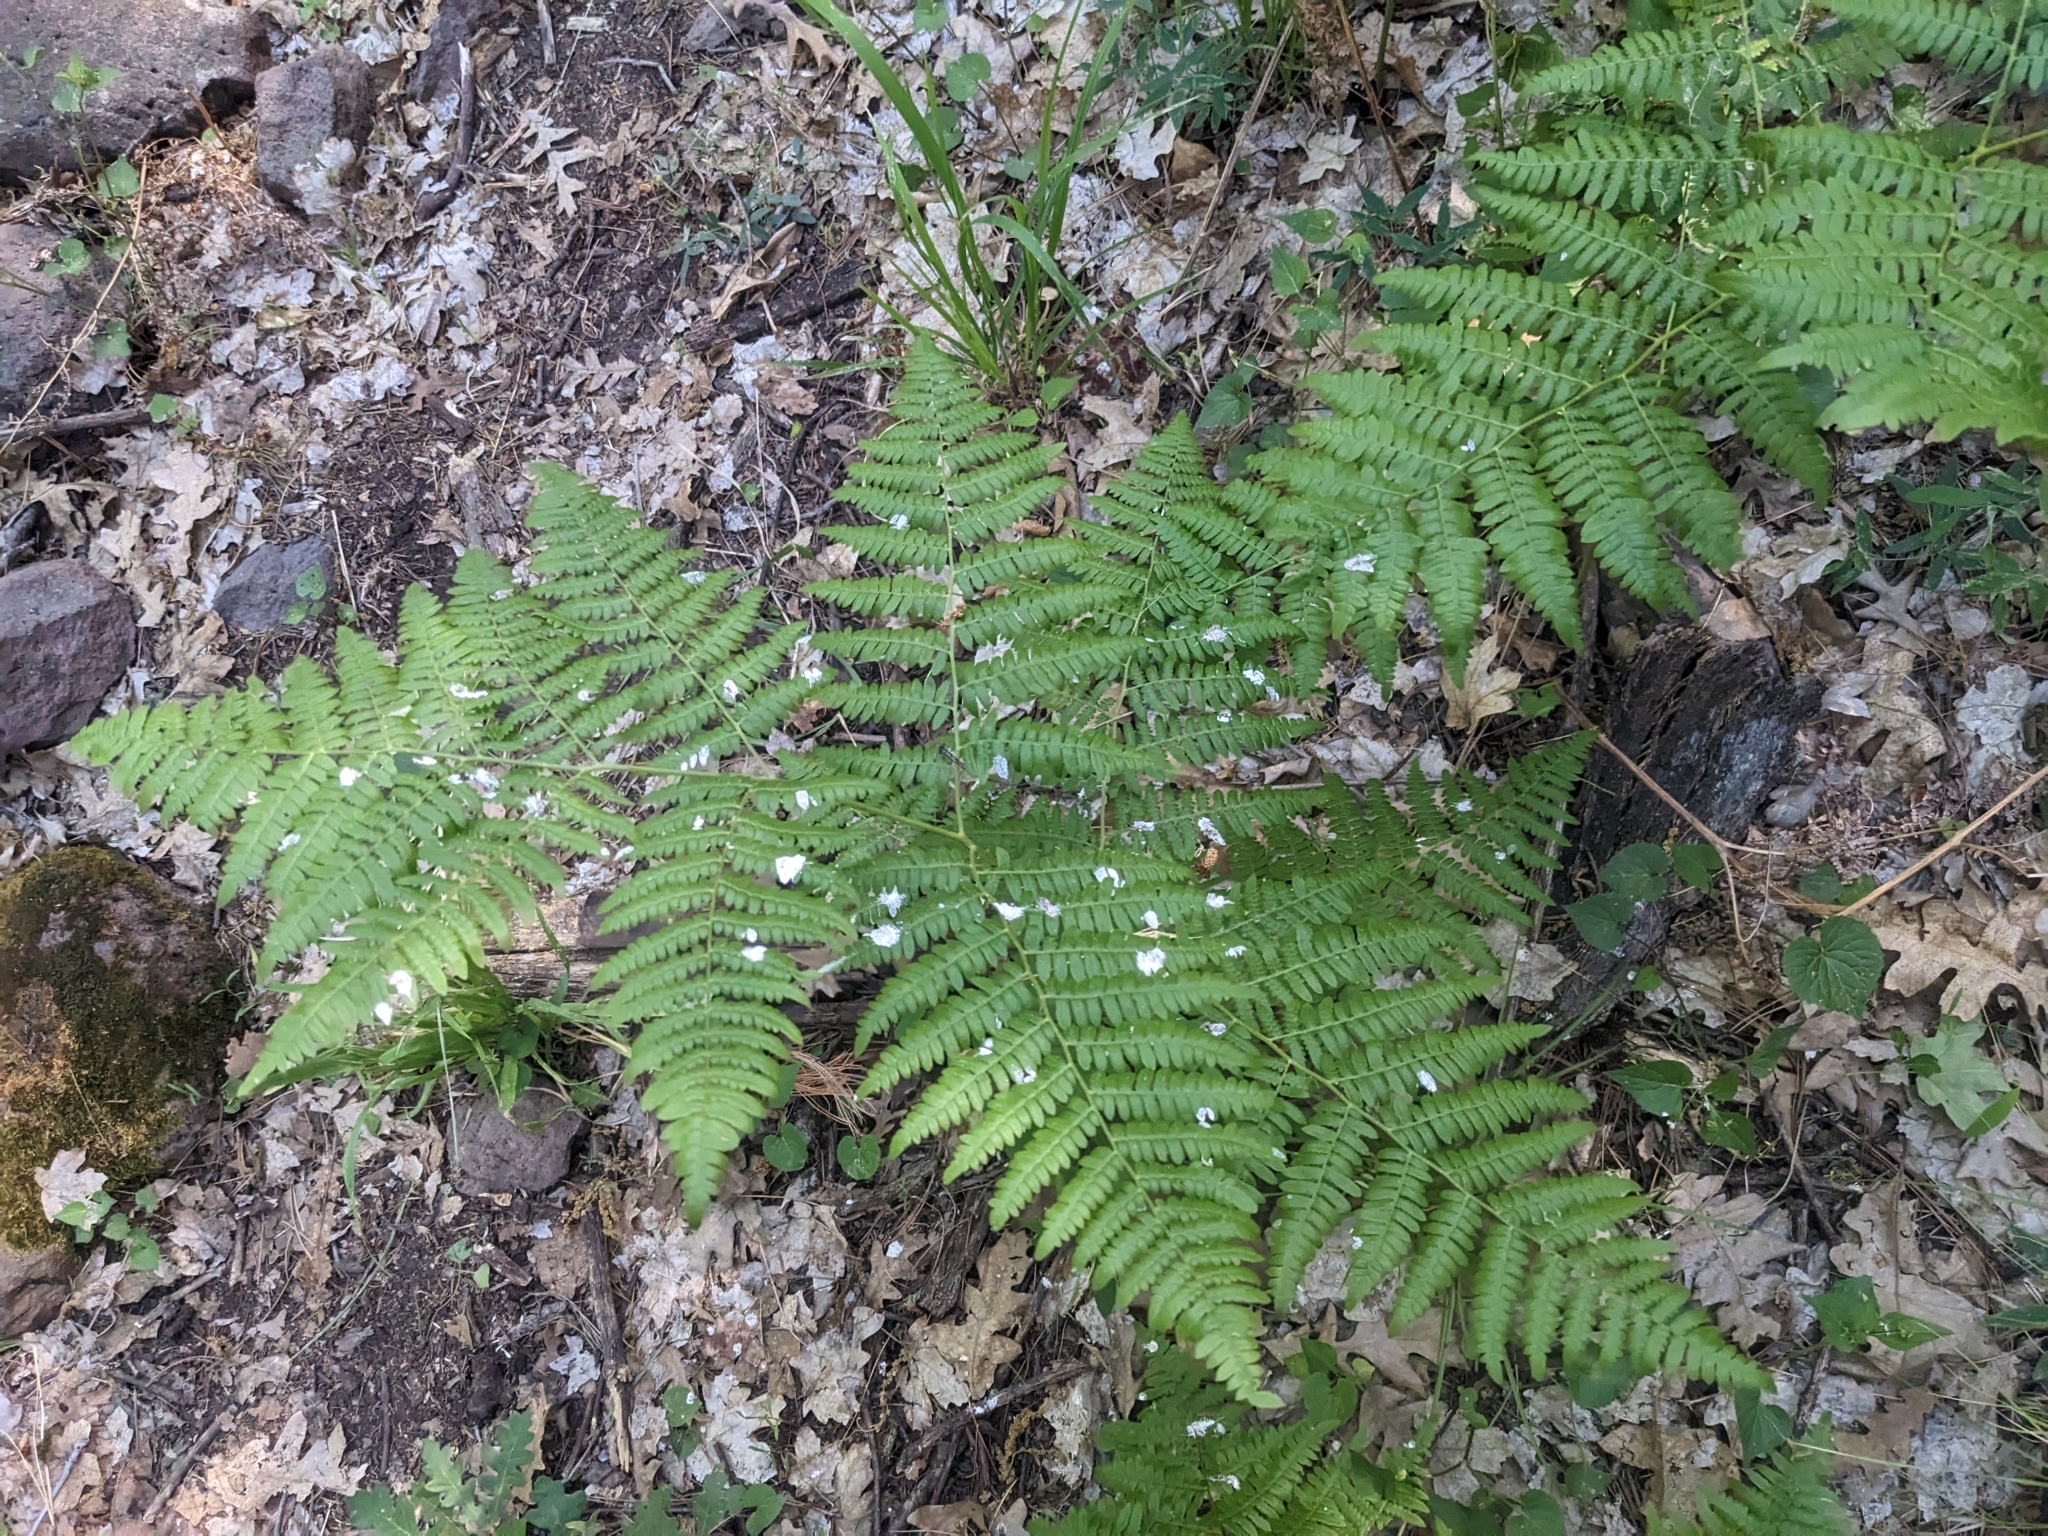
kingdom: Plantae
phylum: Tracheophyta
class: Polypodiopsida
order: Polypodiales
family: Dennstaedtiaceae
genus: Pteridium
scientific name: Pteridium aquilinum
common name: Bracken
